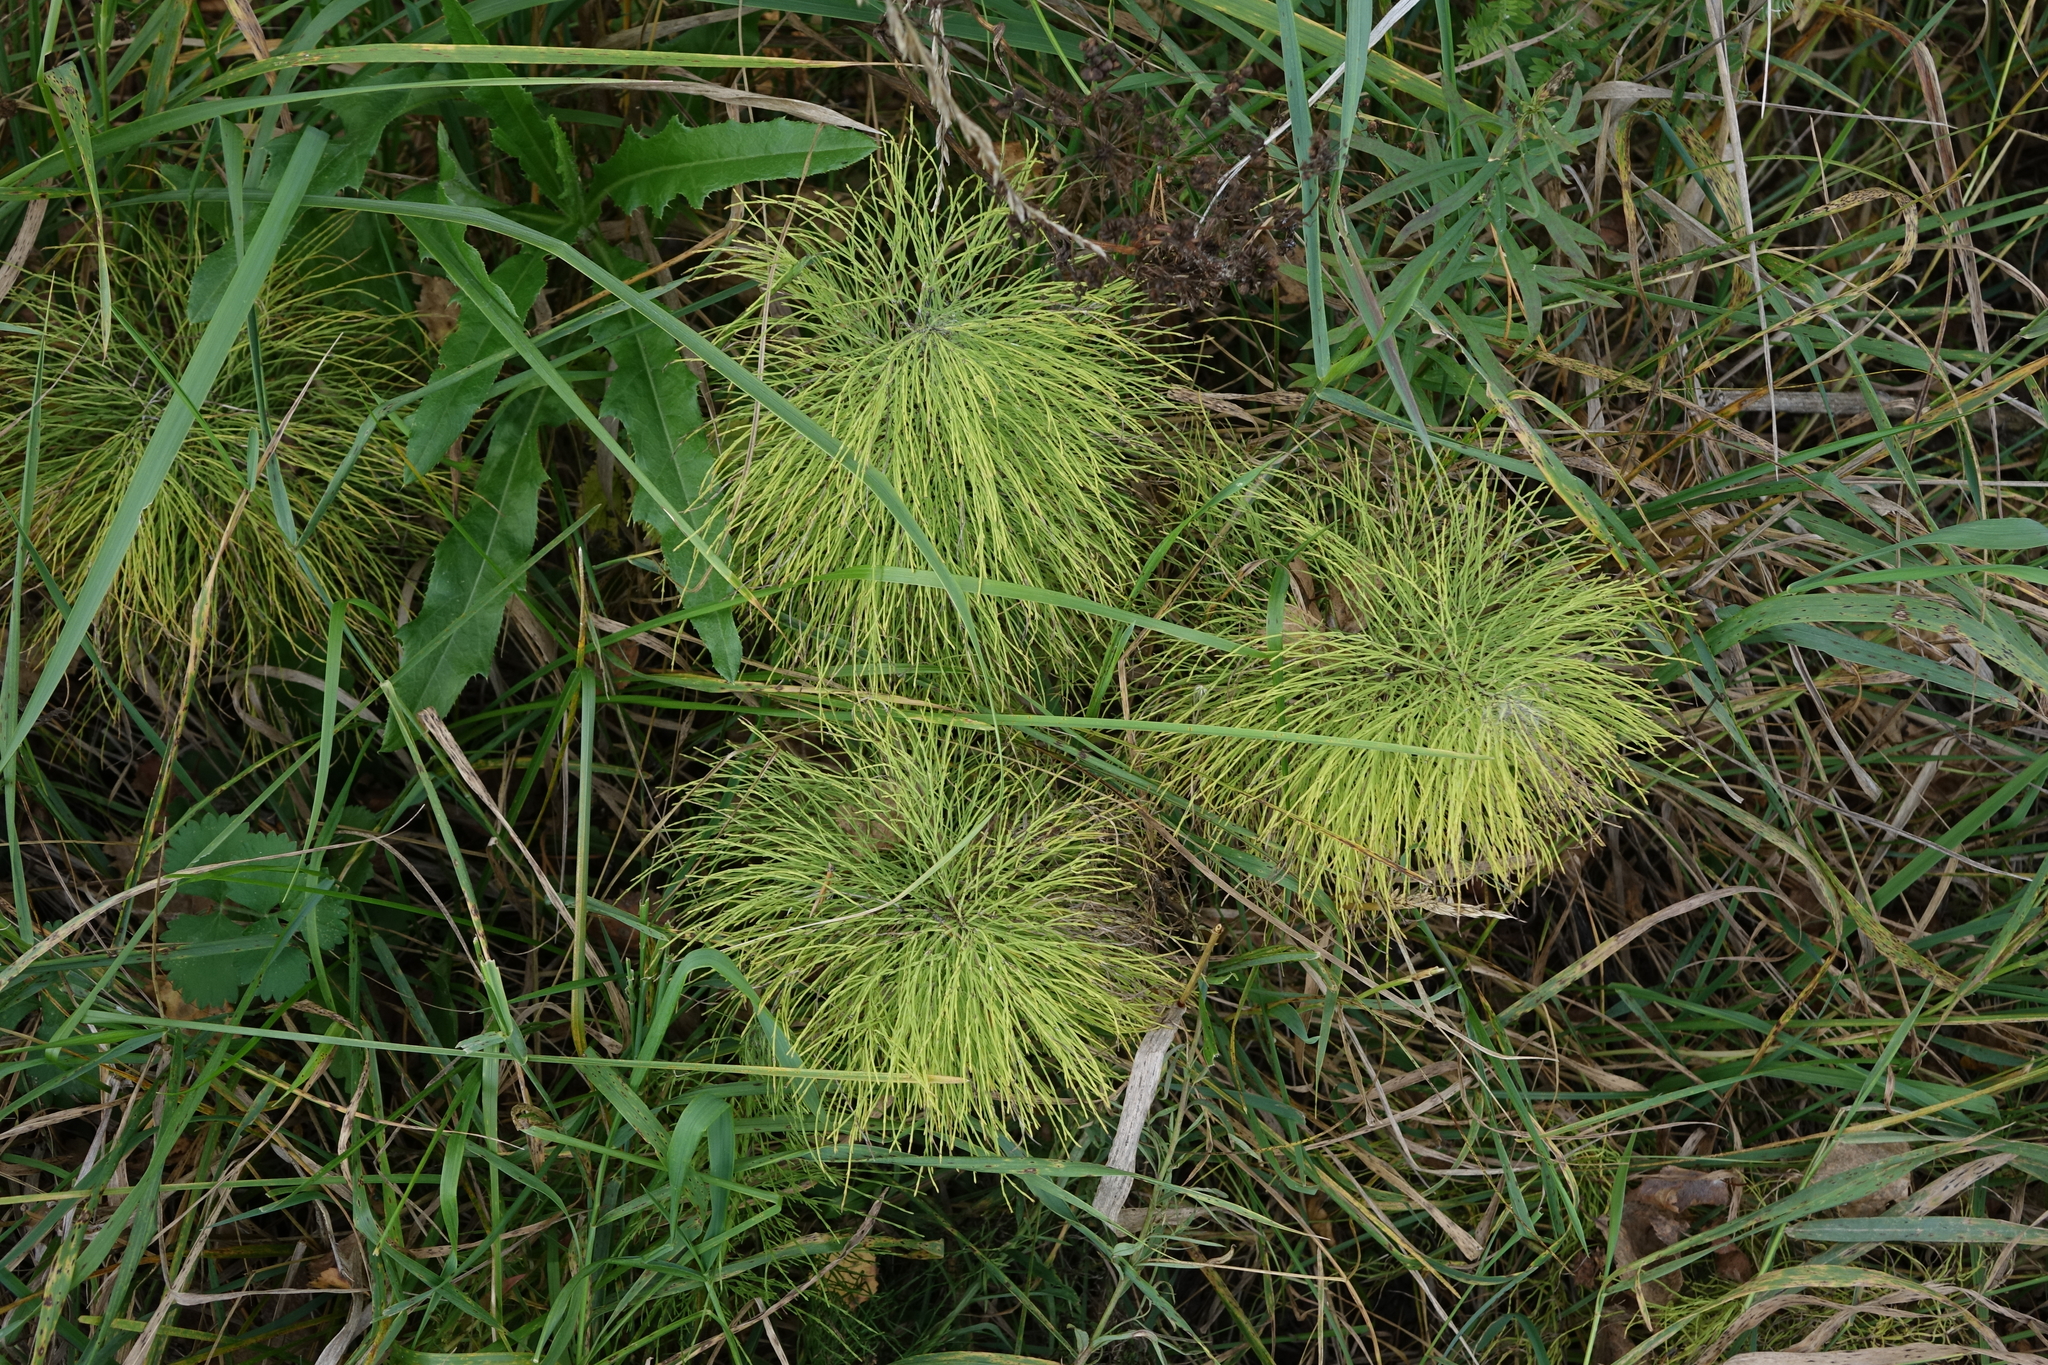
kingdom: Plantae
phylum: Tracheophyta
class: Polypodiopsida
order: Equisetales
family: Equisetaceae
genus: Equisetum
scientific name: Equisetum sylvaticum
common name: Wood horsetail
